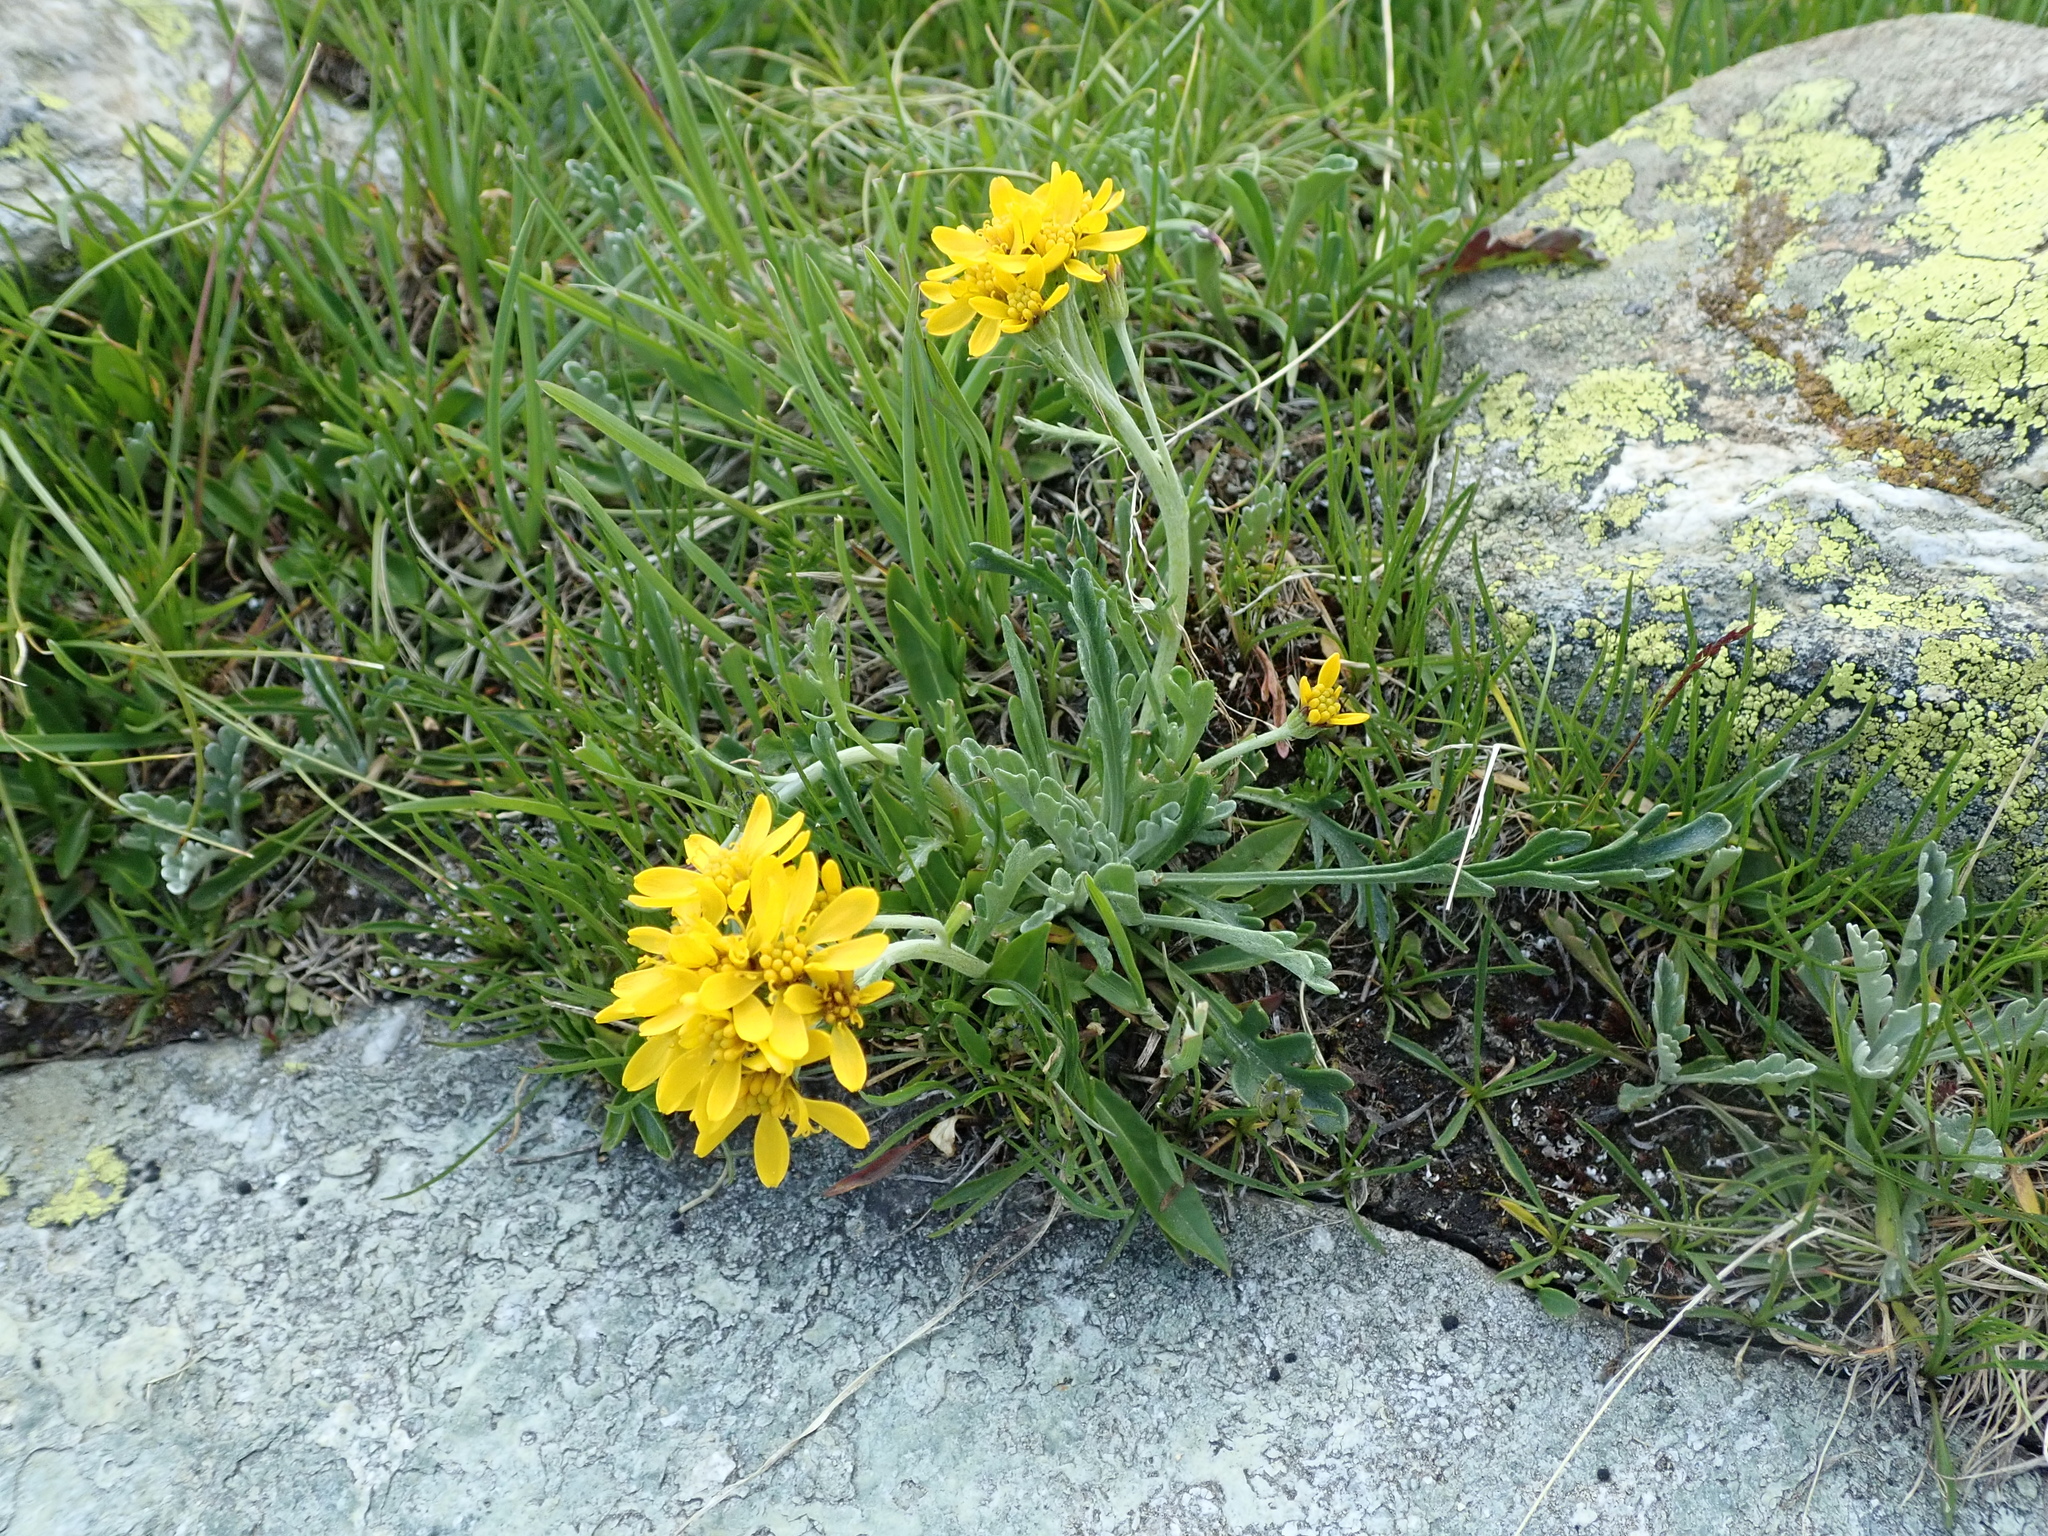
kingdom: Plantae
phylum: Tracheophyta
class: Magnoliopsida
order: Asterales
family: Asteraceae
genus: Jacobaea
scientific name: Jacobaea carniolica
